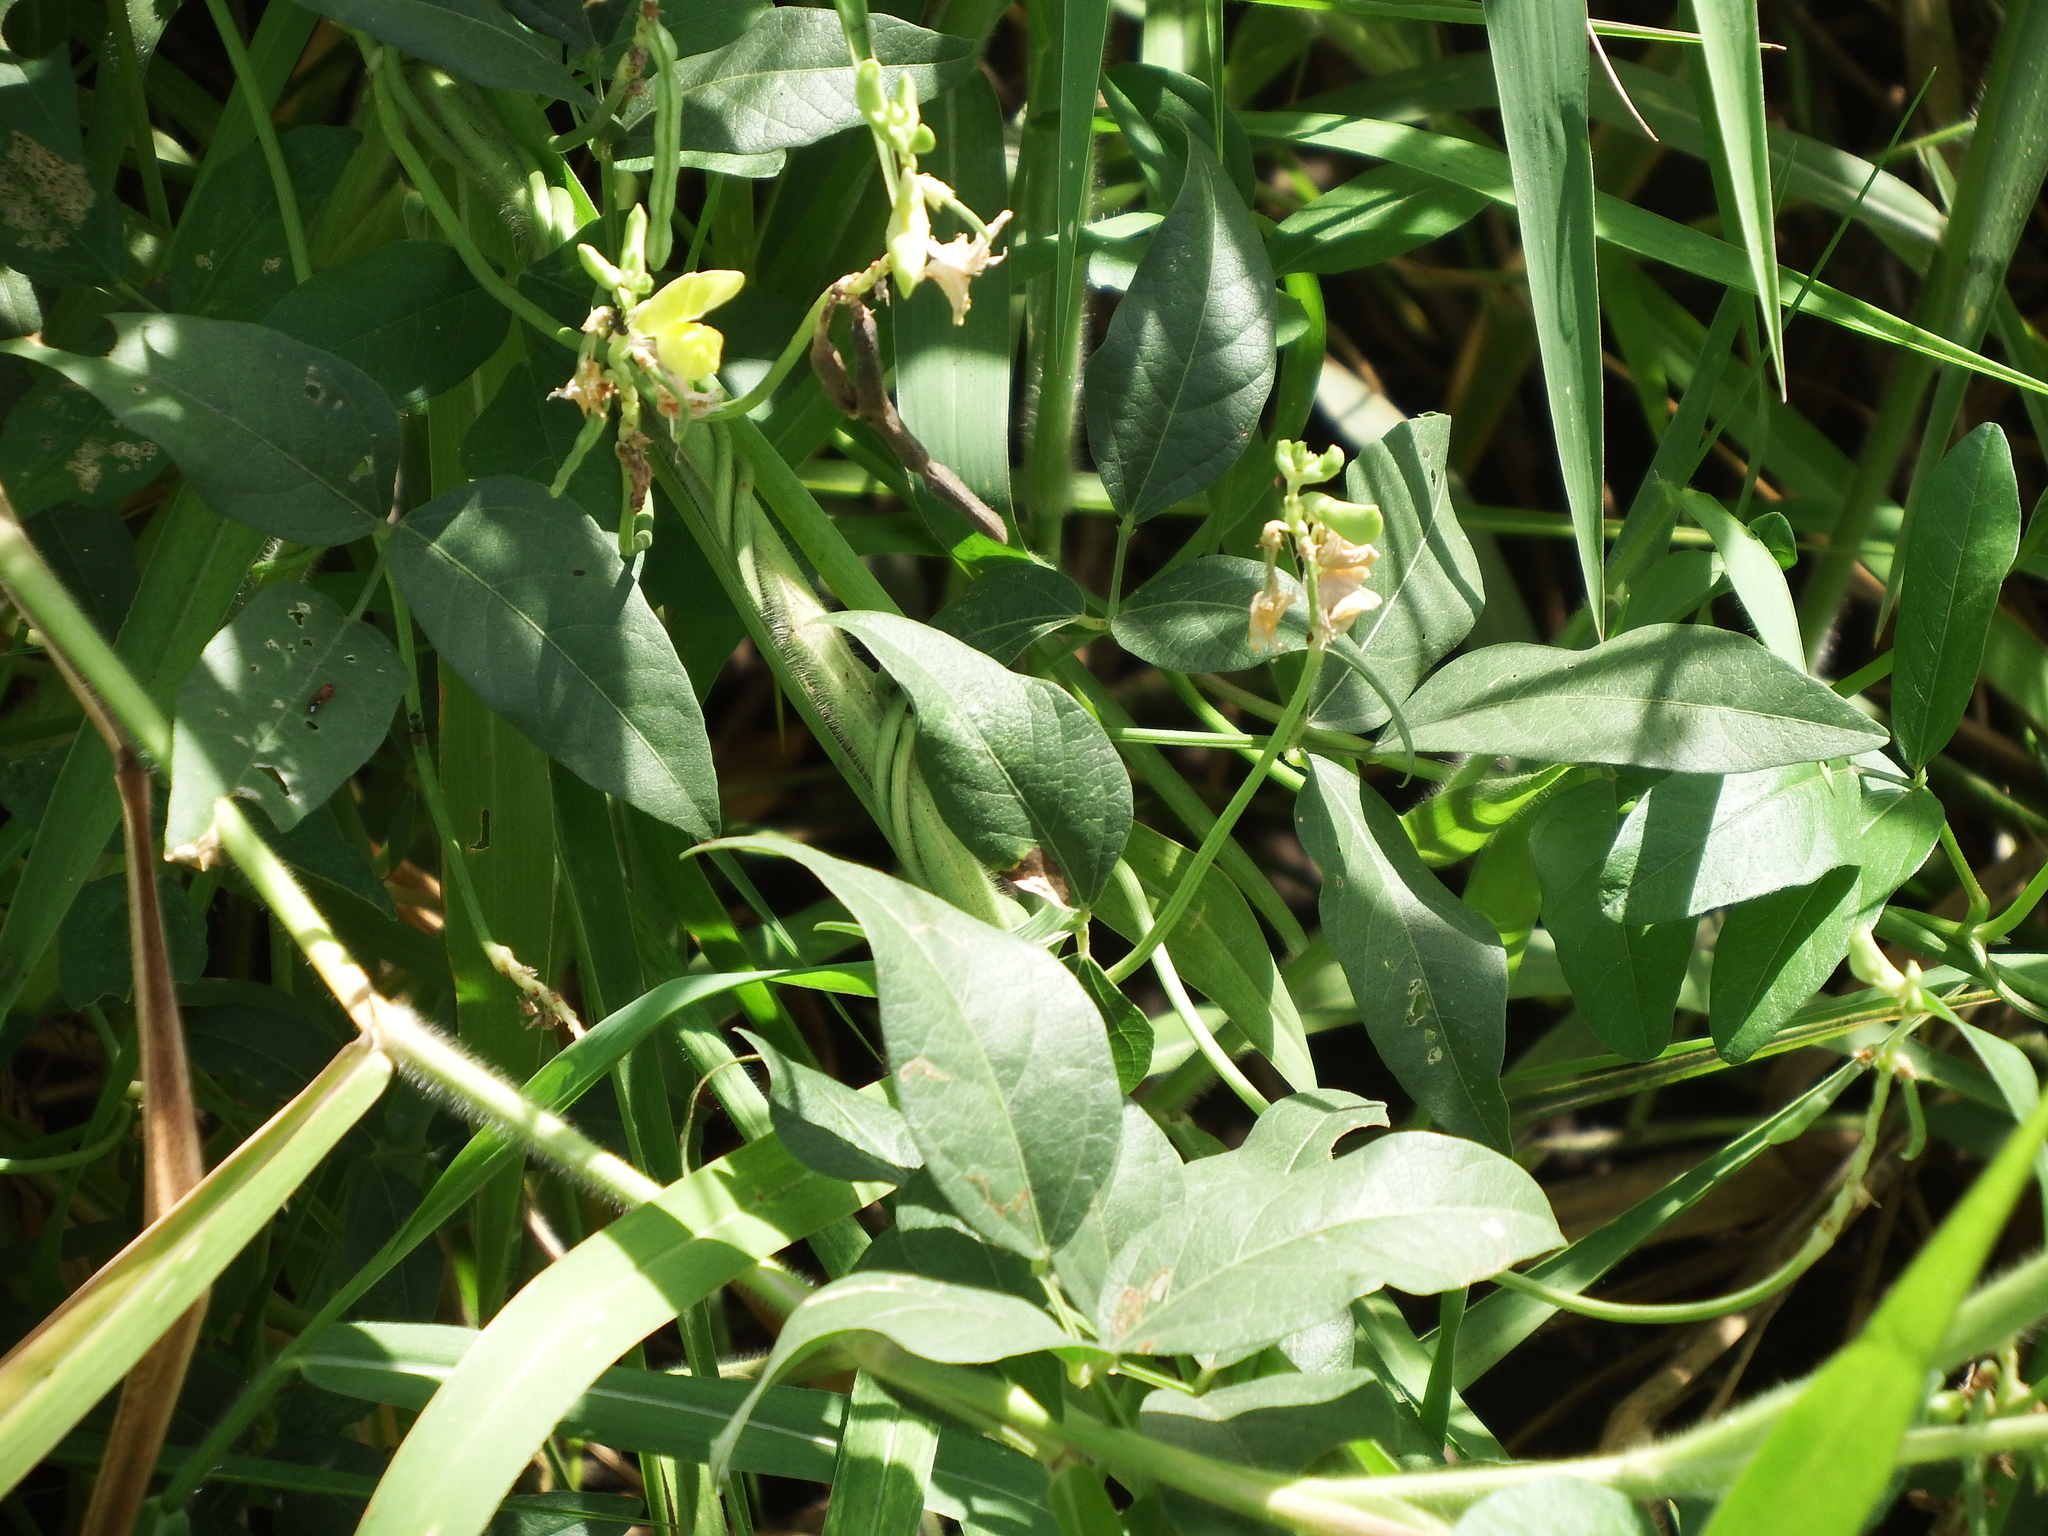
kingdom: Plantae
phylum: Tracheophyta
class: Magnoliopsida
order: Fabales
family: Fabaceae
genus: Vigna
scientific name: Vigna luteola
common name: Hairypod cowpea
